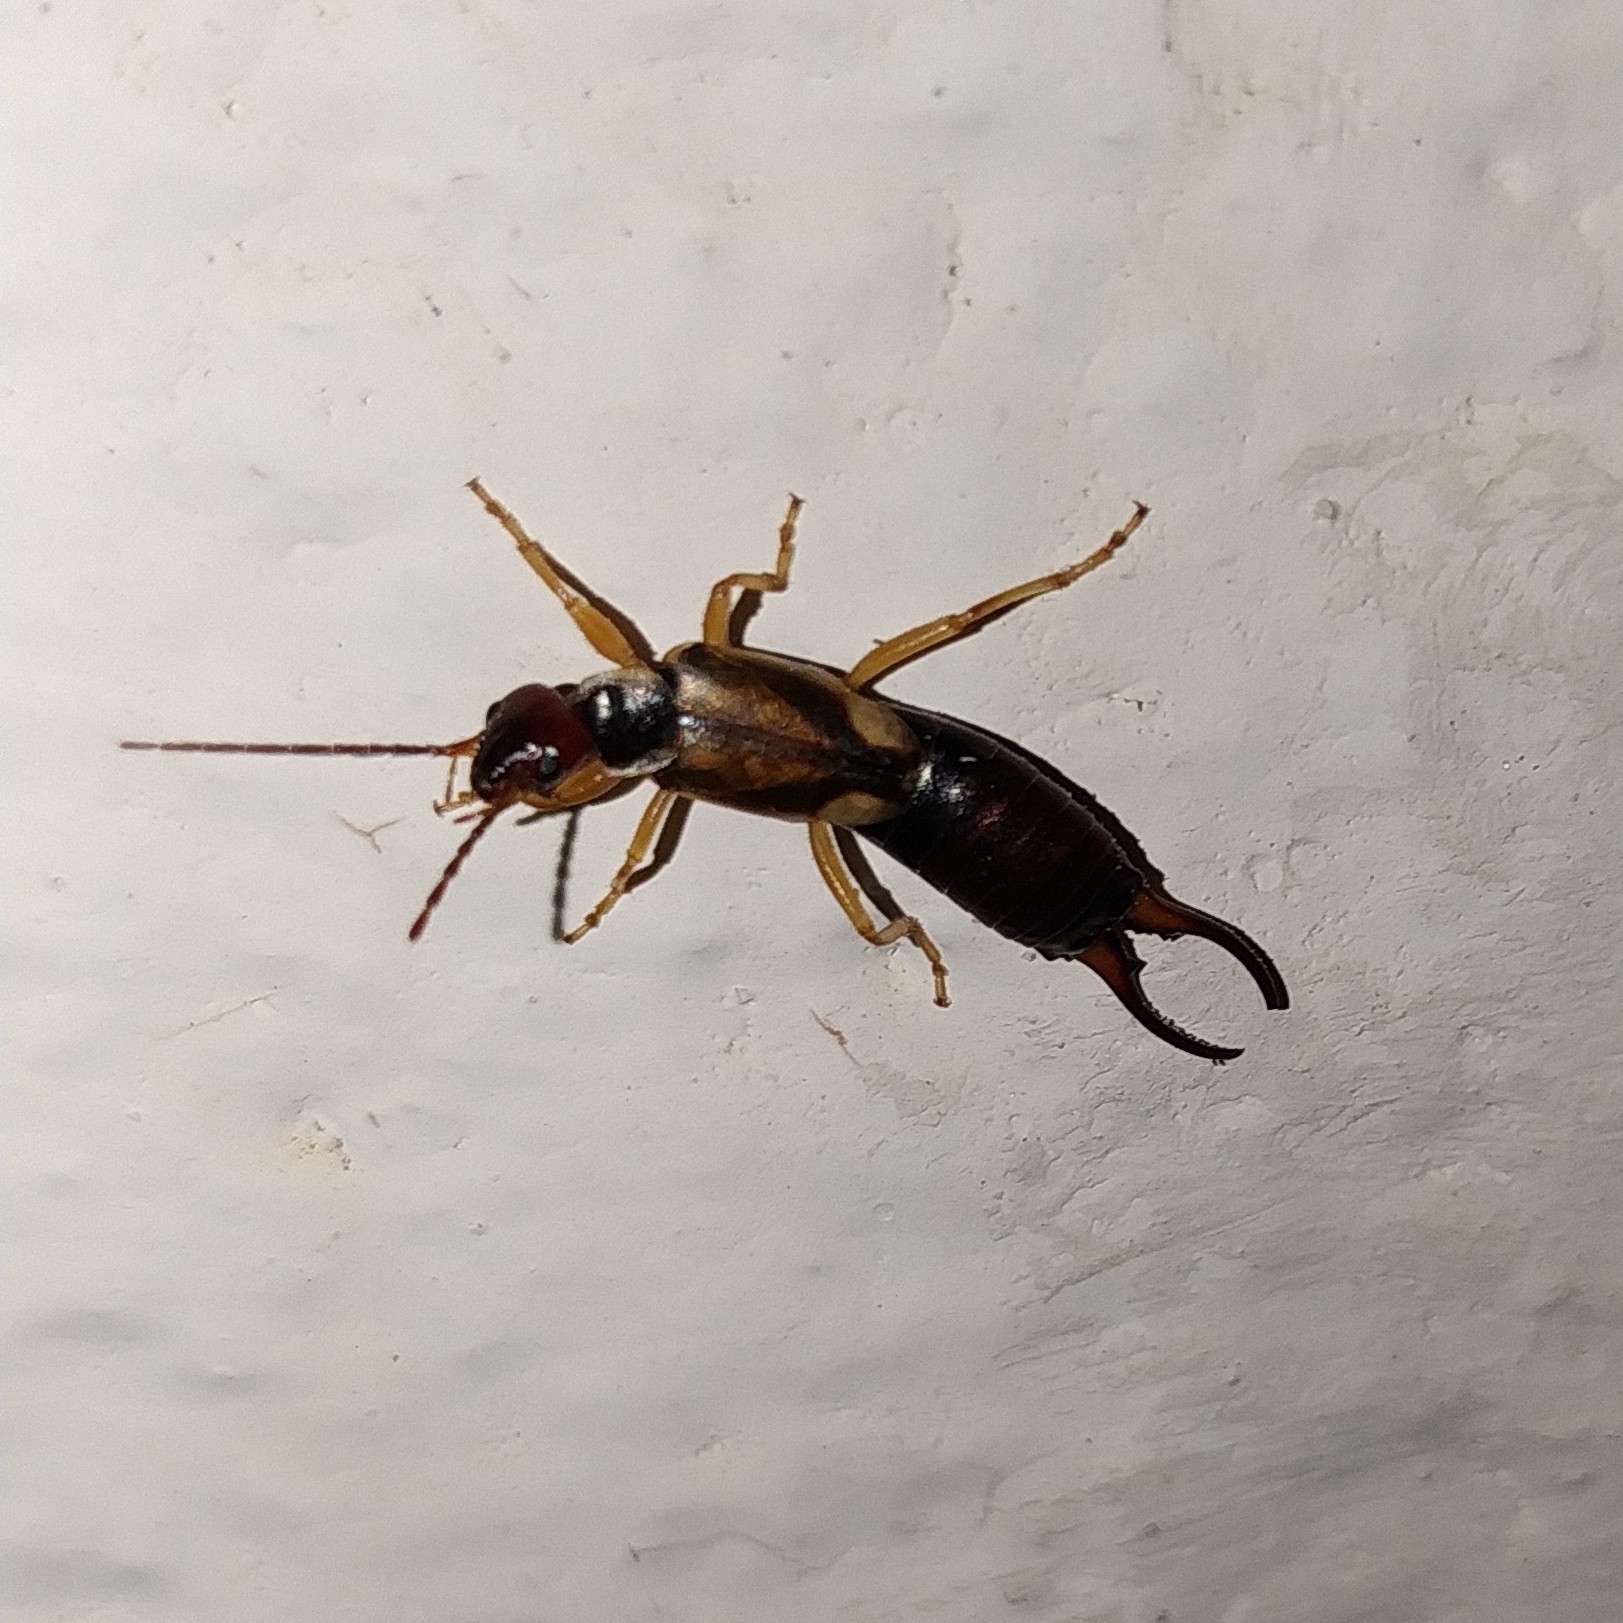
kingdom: Animalia
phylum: Arthropoda
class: Insecta
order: Dermaptera
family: Forficulidae
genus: Forficula
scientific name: Forficula
